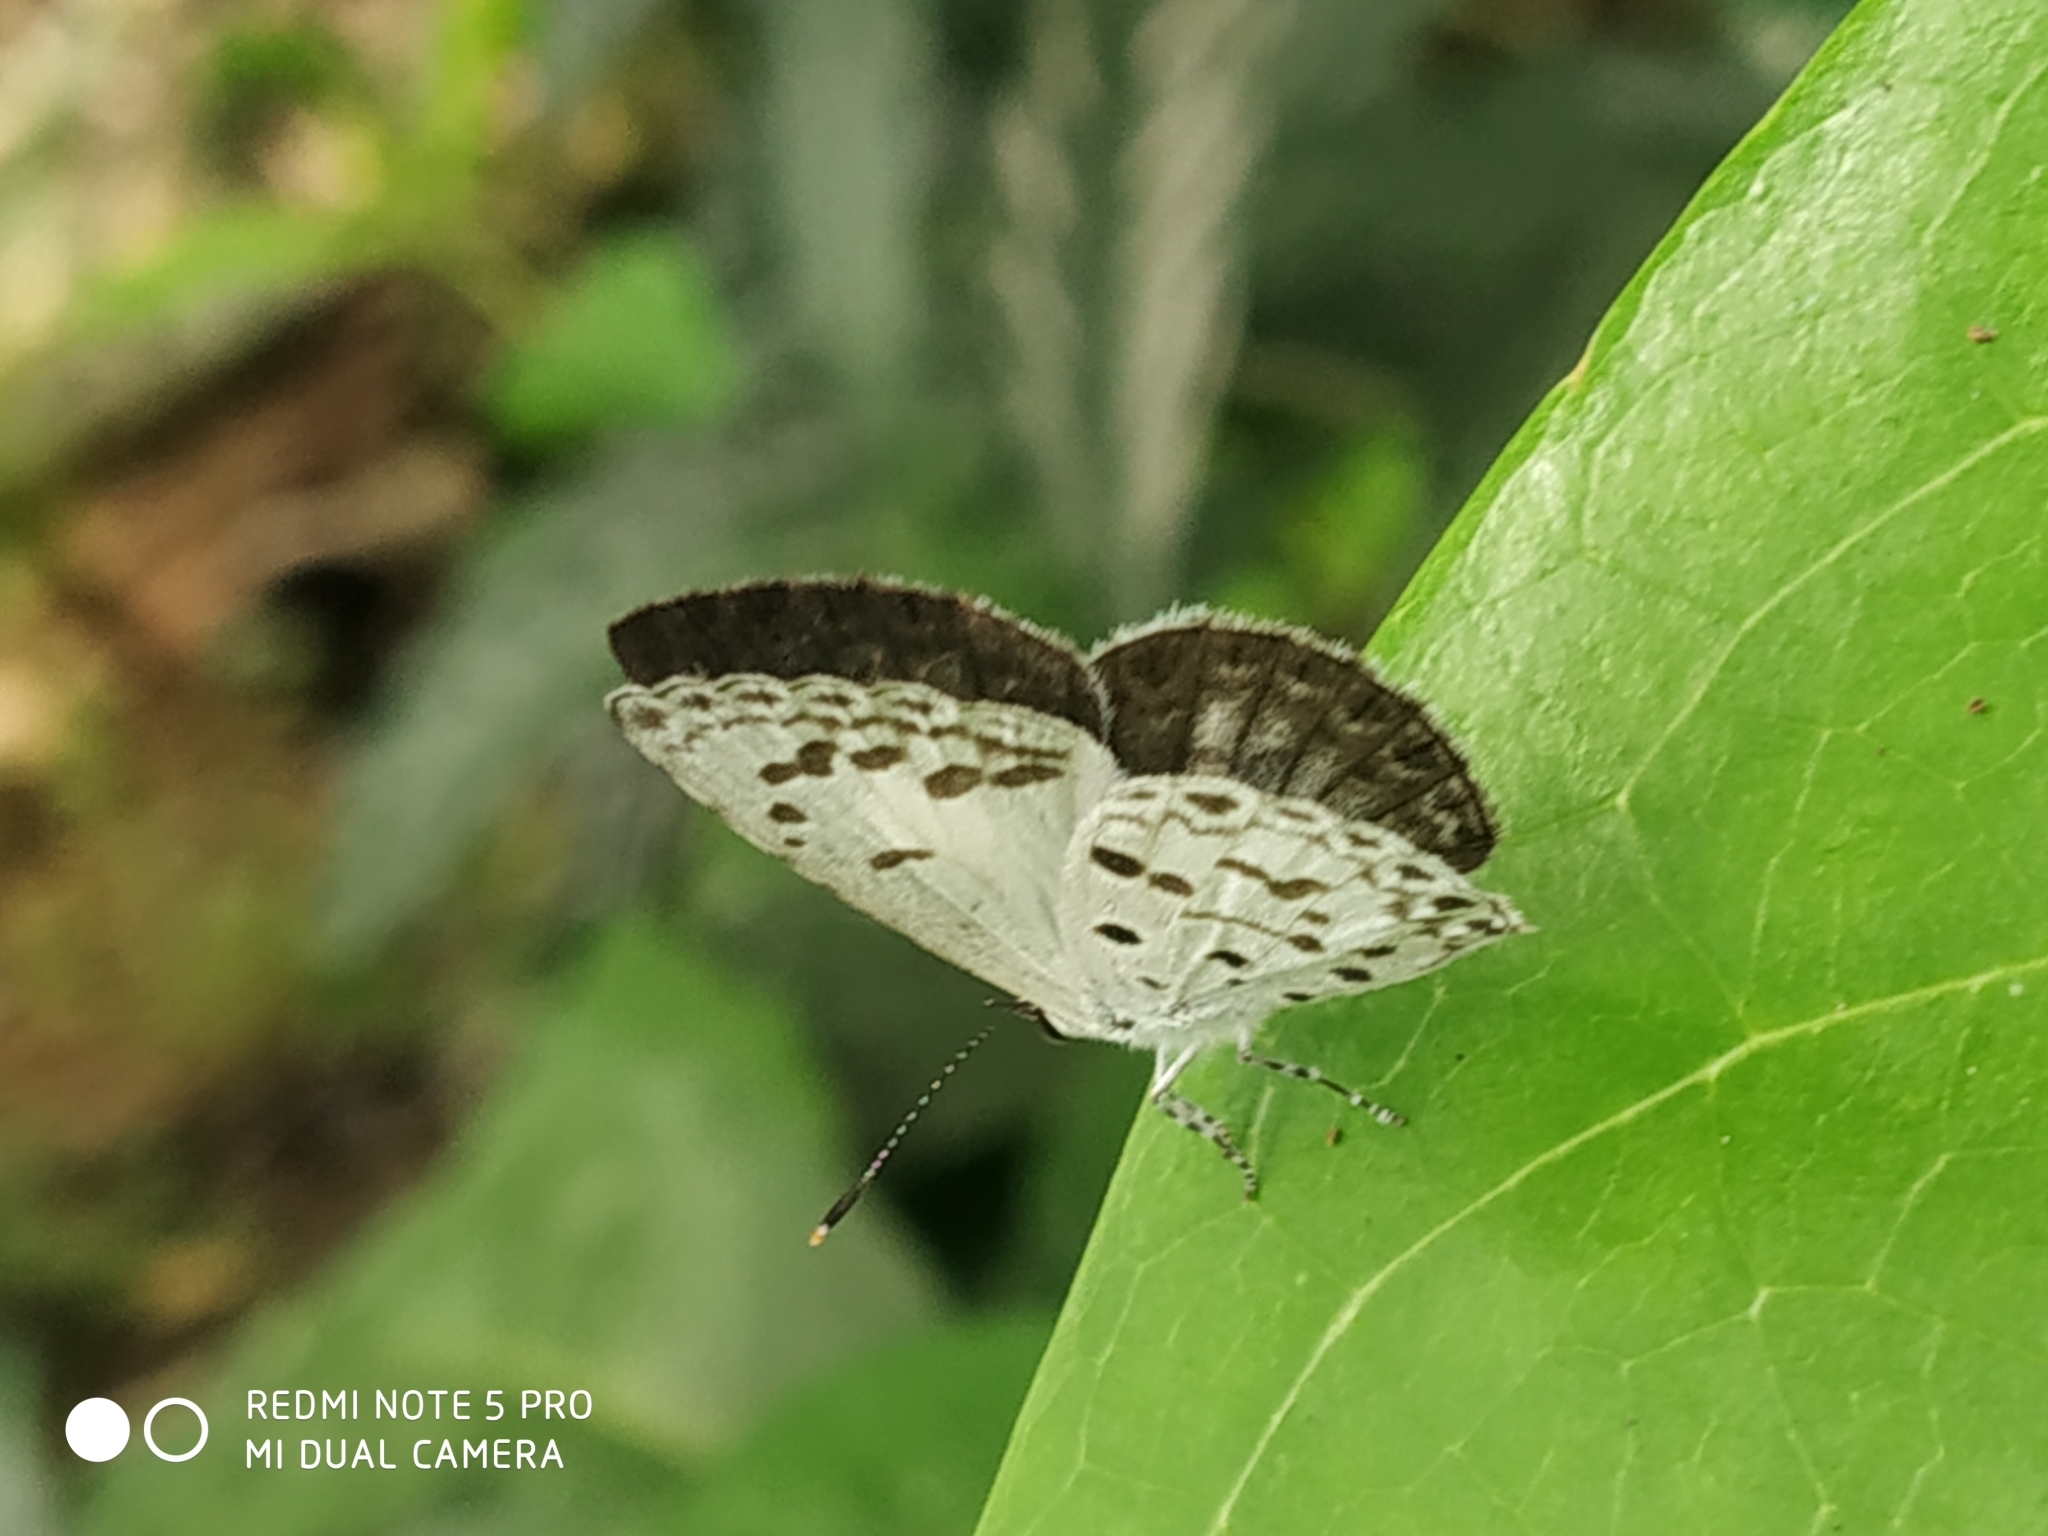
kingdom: Animalia
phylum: Arthropoda
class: Insecta
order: Lepidoptera
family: Lycaenidae
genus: Acytolepis
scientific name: Acytolepis puspa
